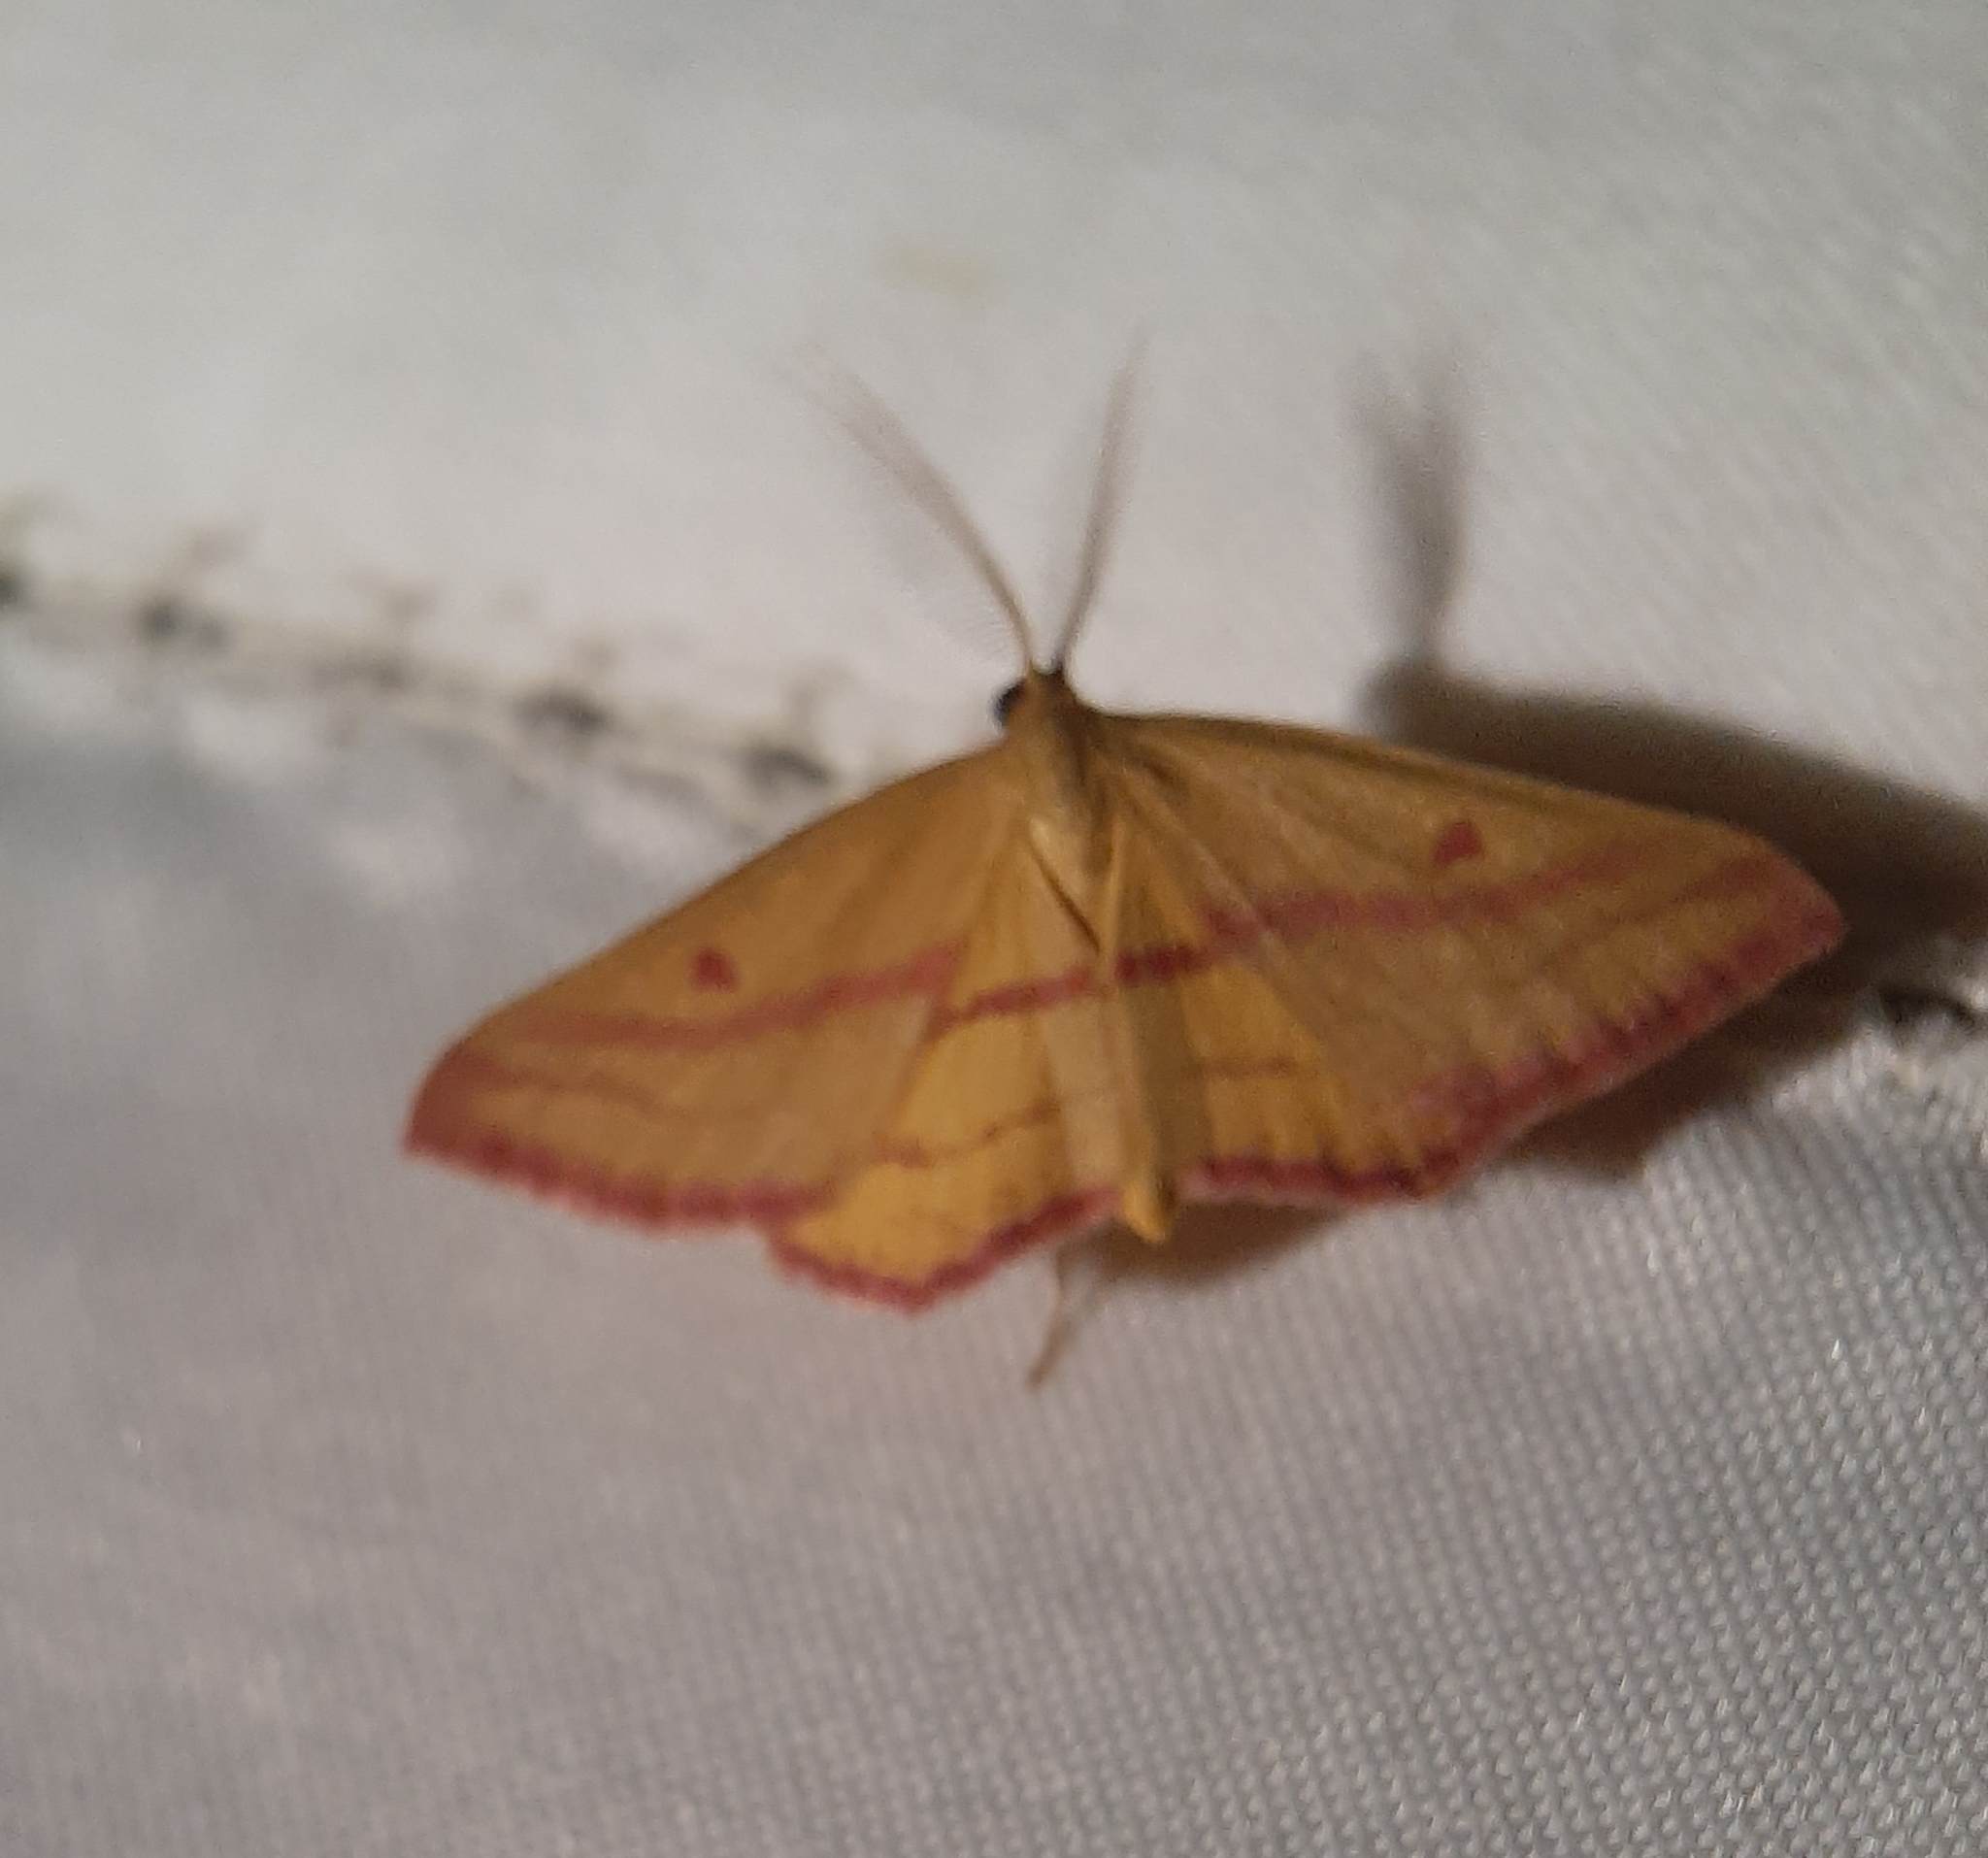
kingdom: Animalia
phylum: Arthropoda
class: Insecta
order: Lepidoptera
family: Geometridae
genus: Haematopis
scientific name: Haematopis grataria
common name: Chickweed geometer
